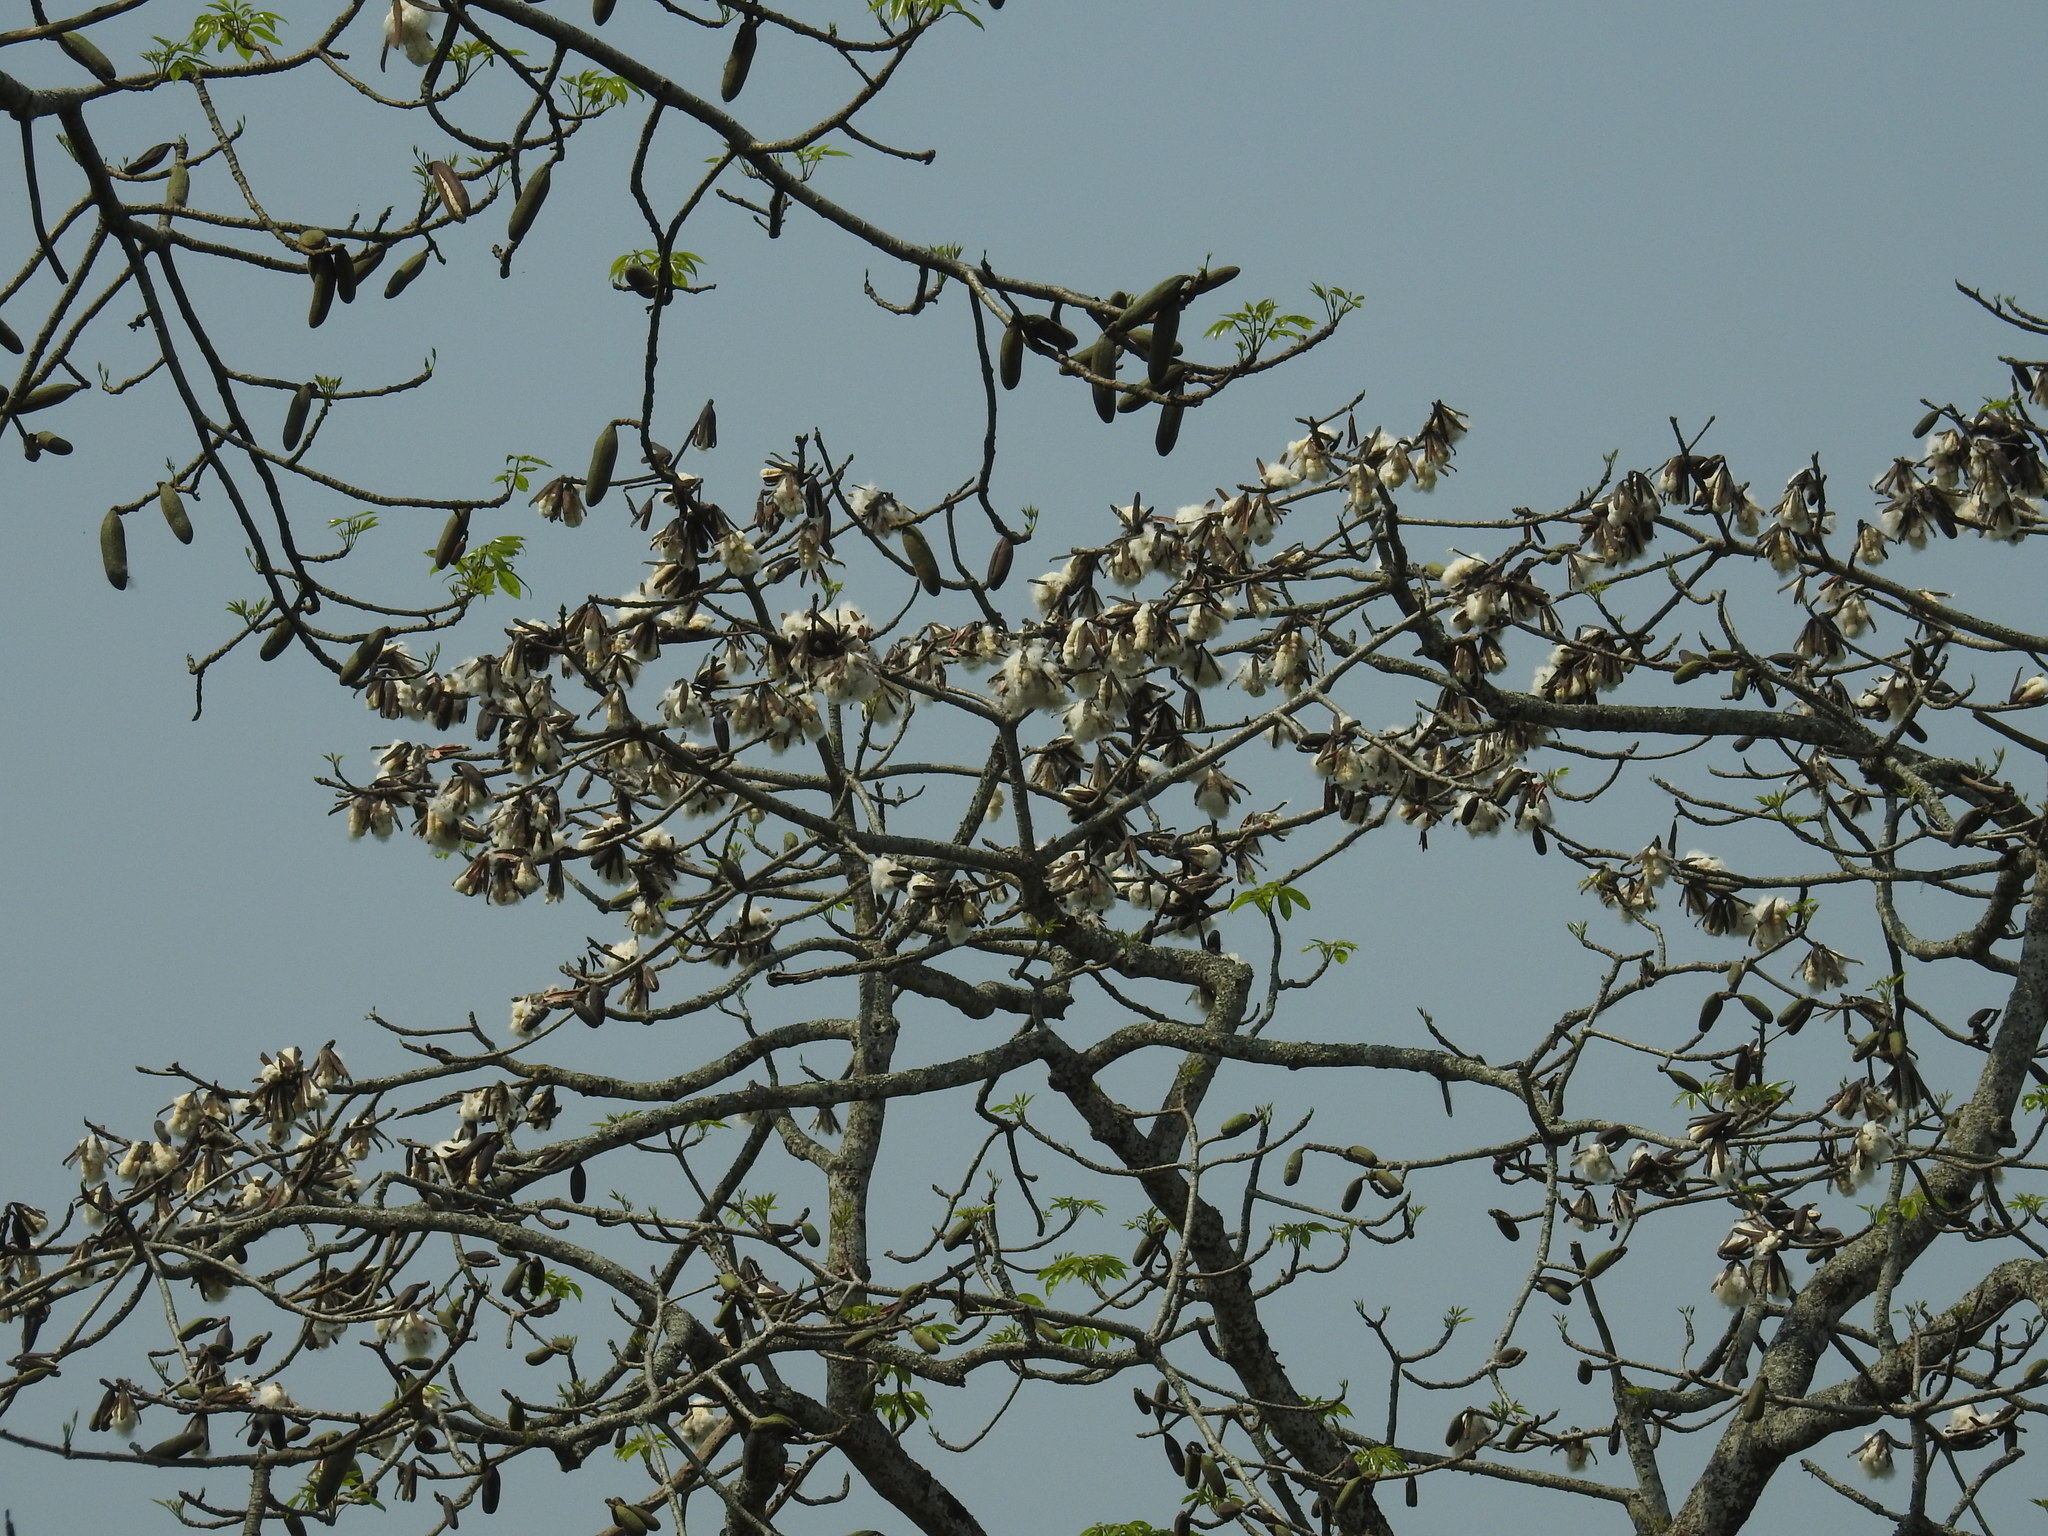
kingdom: Plantae
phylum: Tracheophyta
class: Magnoliopsida
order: Malvales
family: Malvaceae
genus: Ceiba
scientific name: Ceiba speciosa
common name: Silk-floss tree
